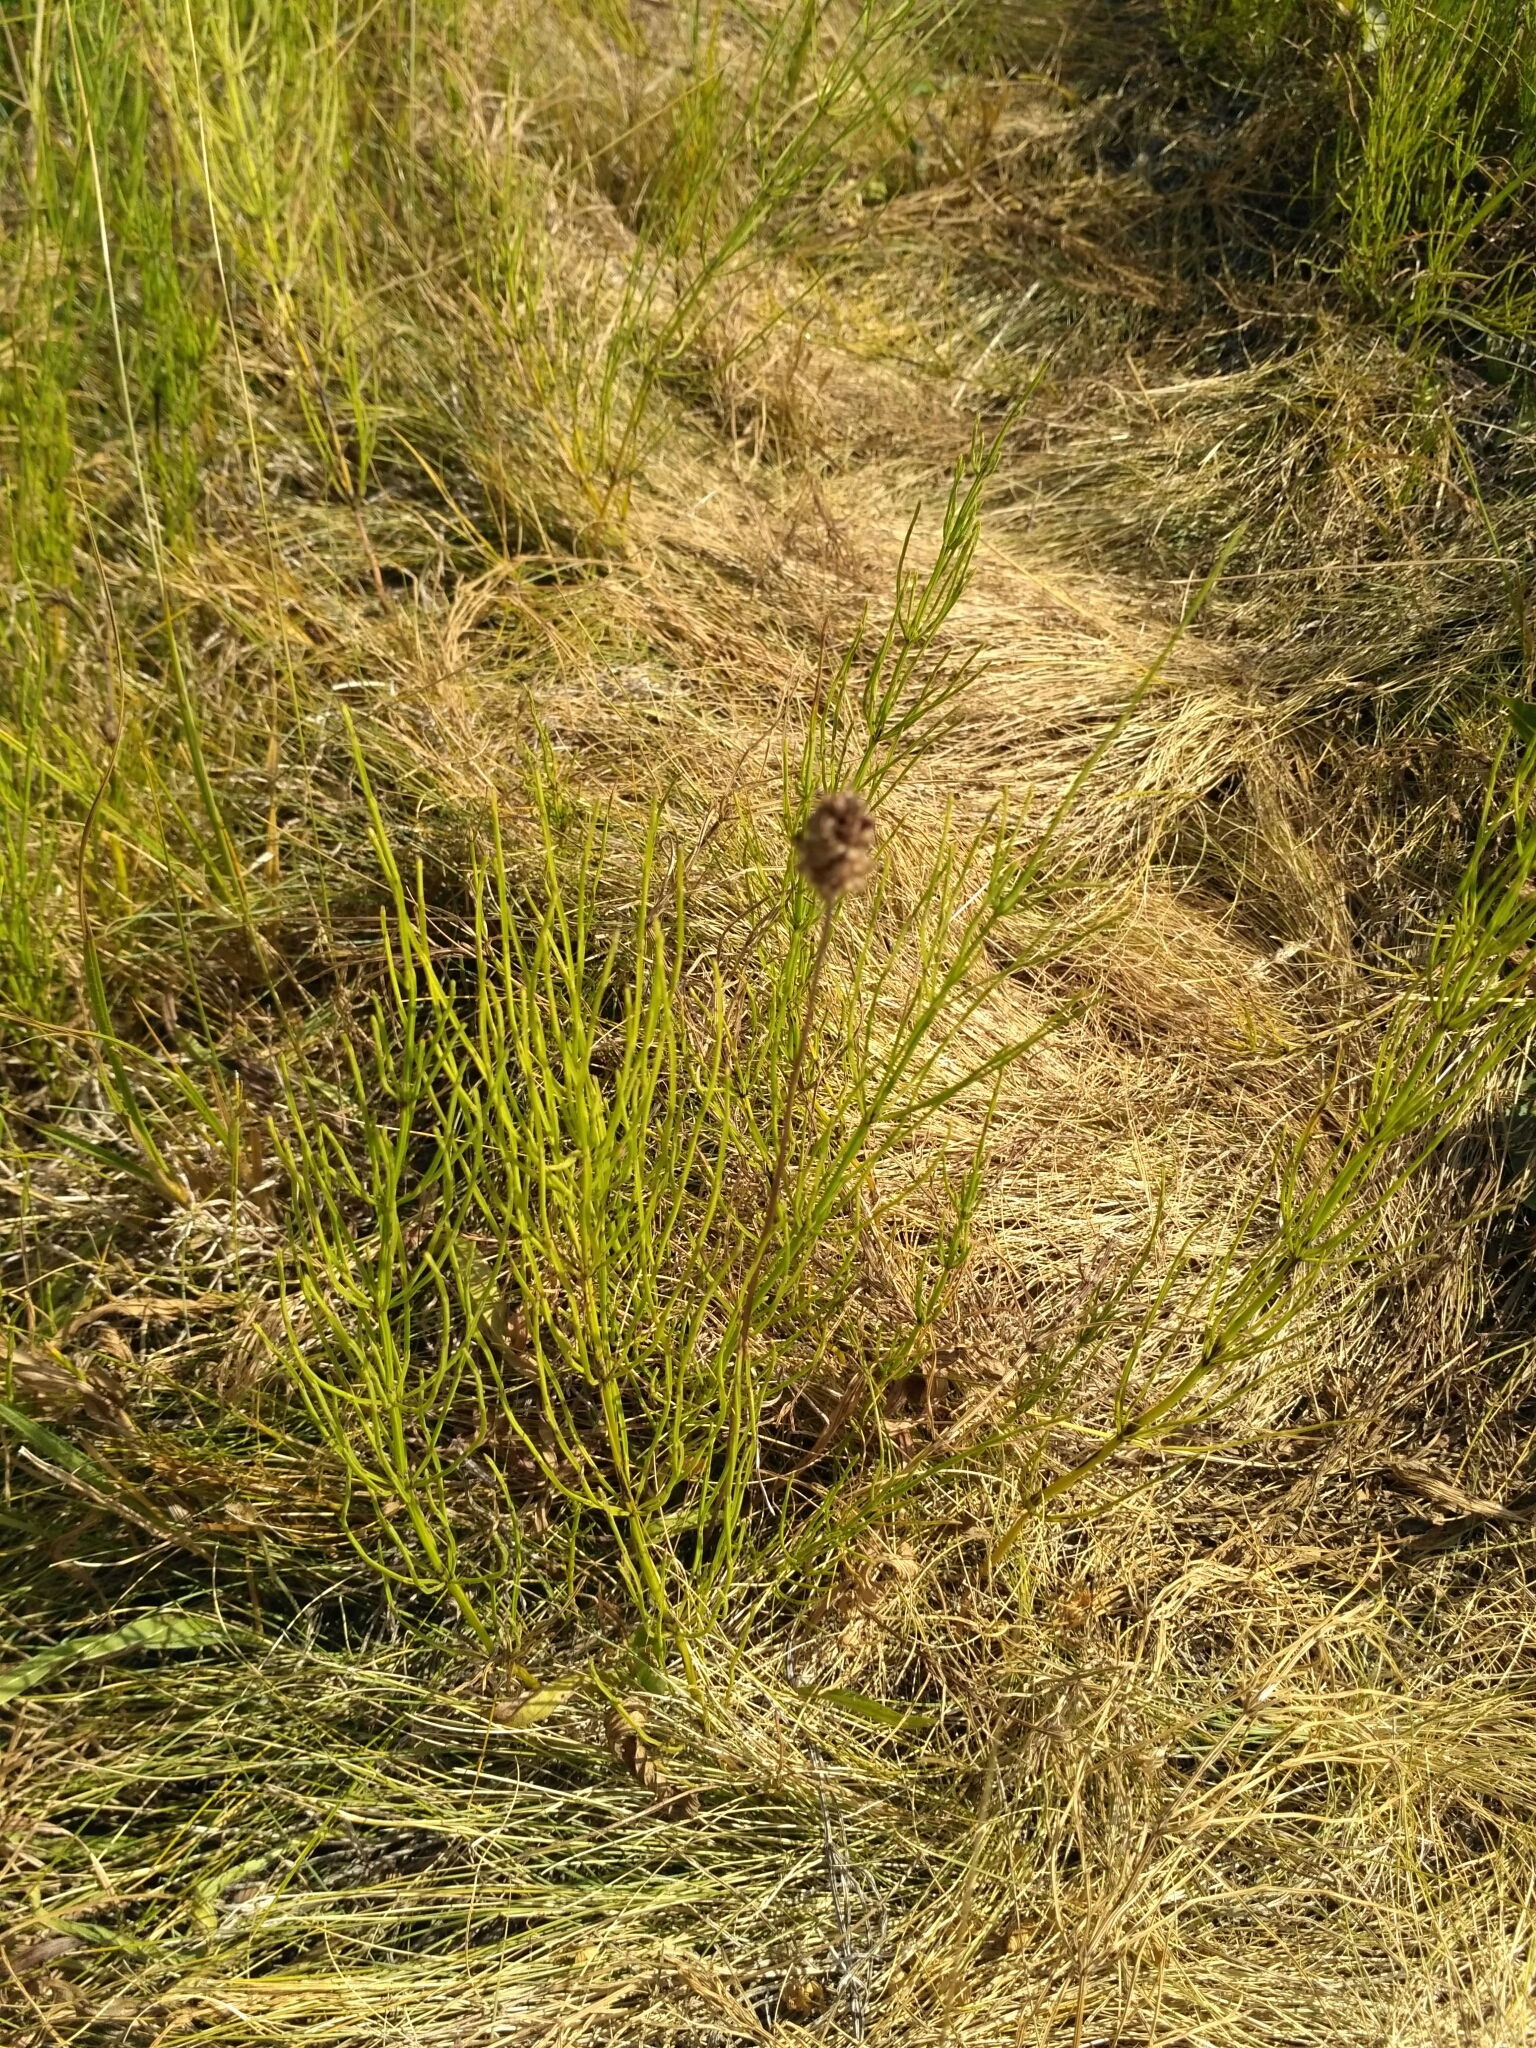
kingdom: Plantae
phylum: Tracheophyta
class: Magnoliopsida
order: Lamiales
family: Plantaginaceae
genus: Plantago
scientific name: Plantago lanceolata
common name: Ribwort plantain
